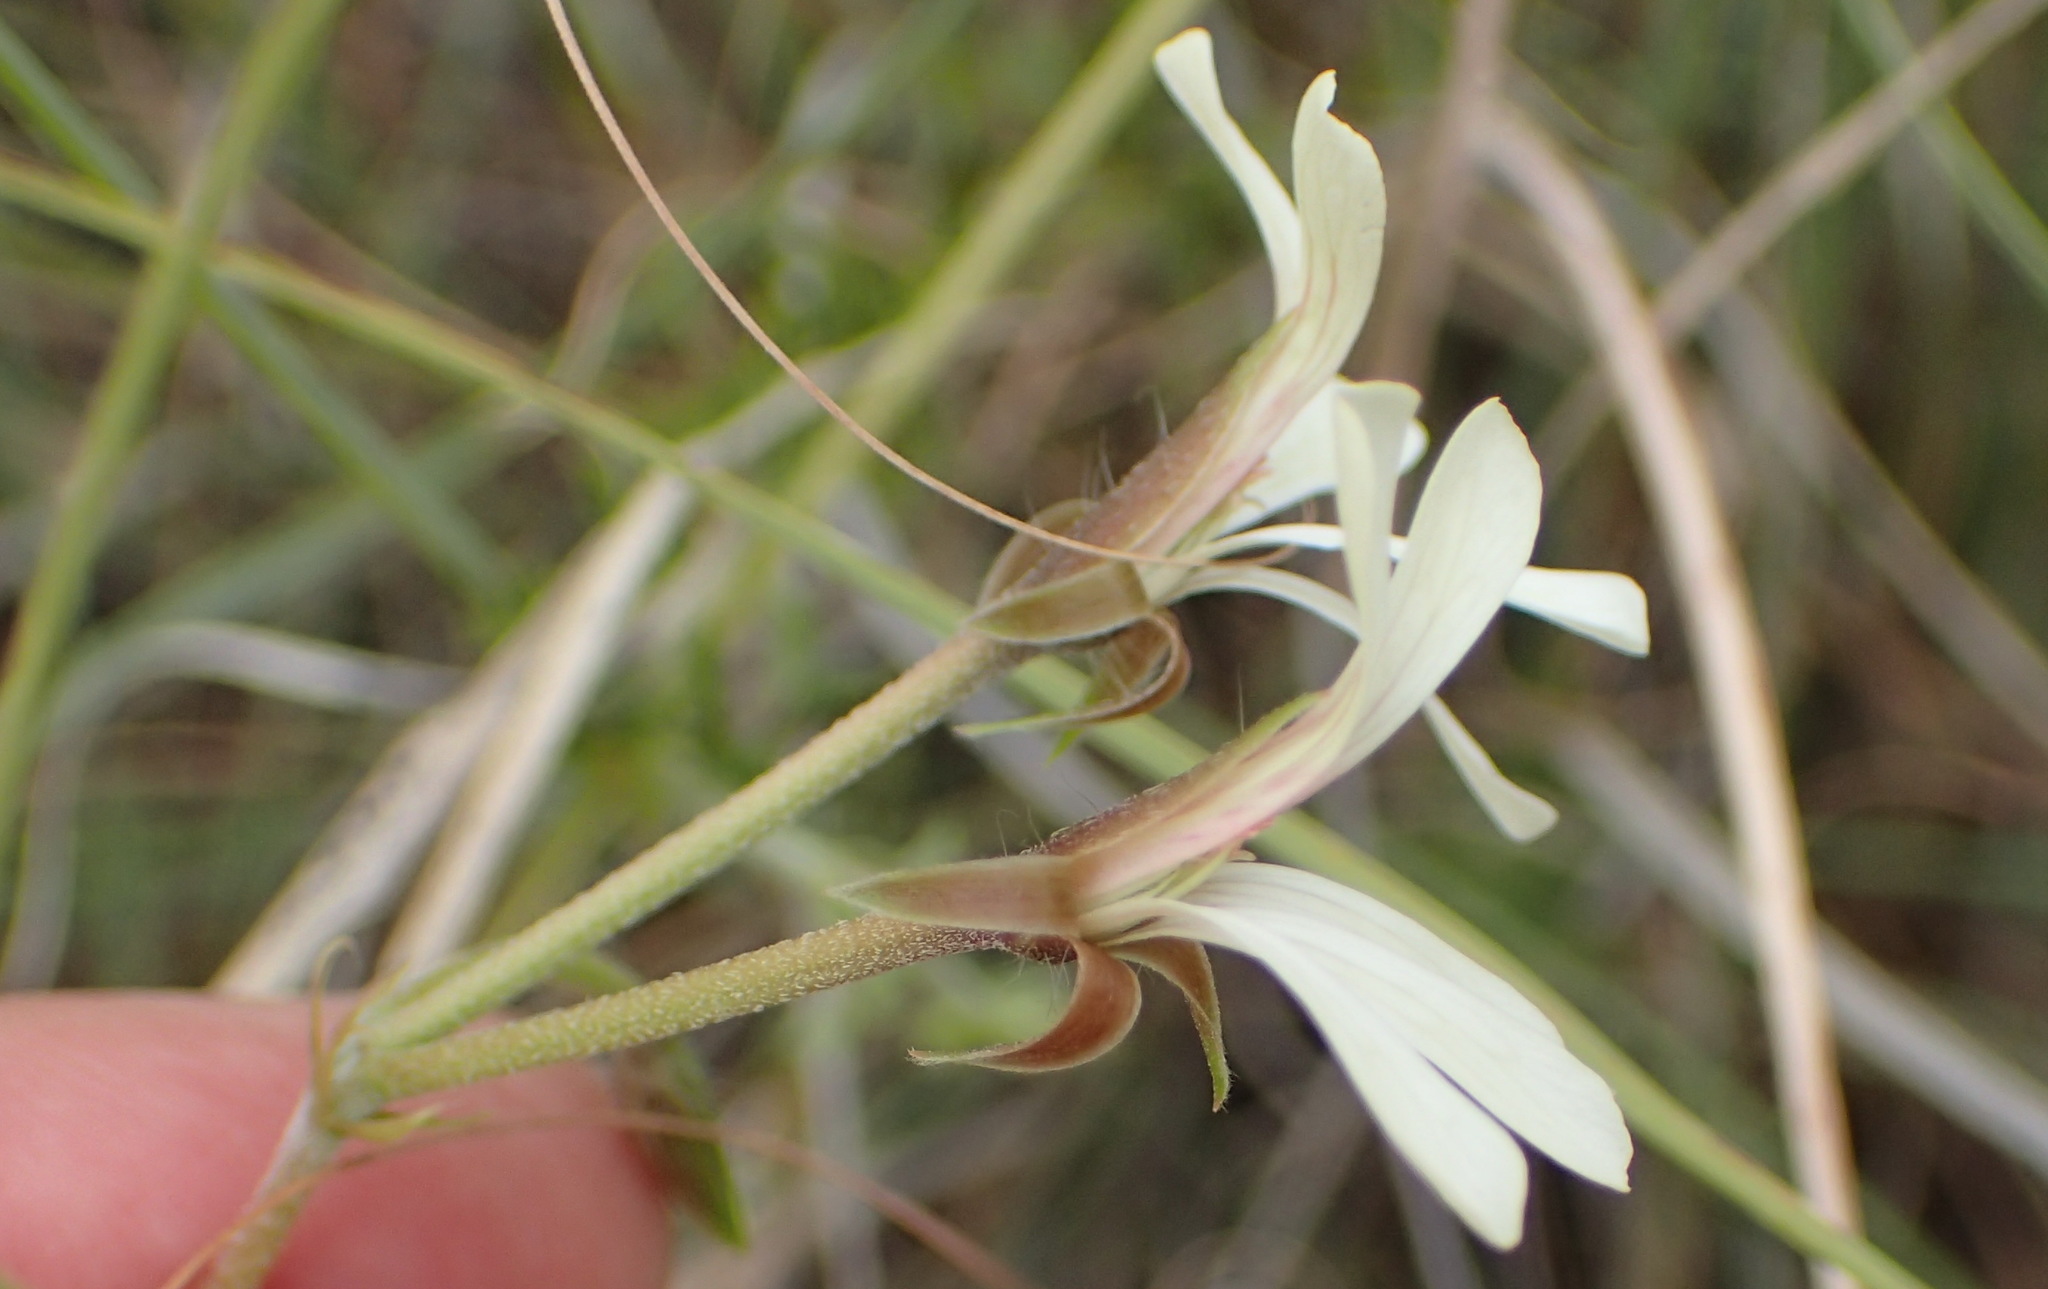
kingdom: Plantae
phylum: Tracheophyta
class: Magnoliopsida
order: Geraniales
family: Geraniaceae
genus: Pelargonium
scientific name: Pelargonium alchemilloides
